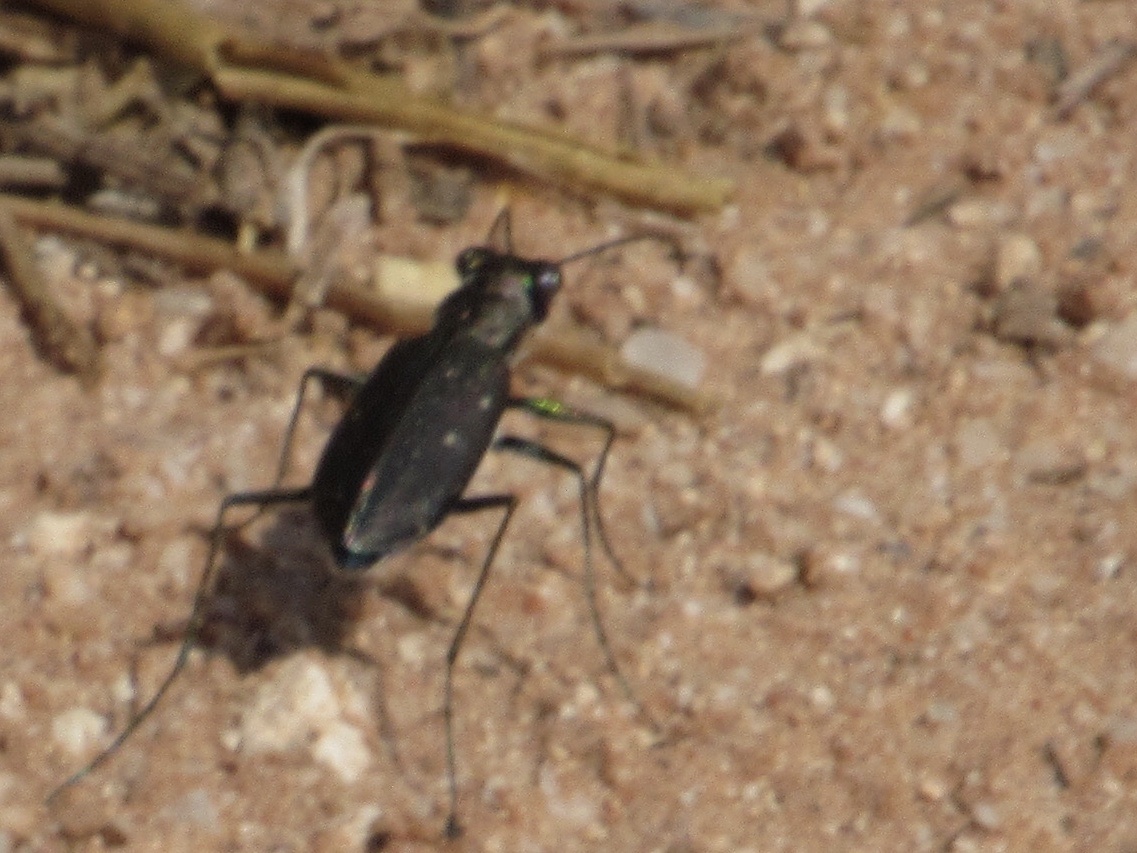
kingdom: Animalia
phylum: Arthropoda
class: Insecta
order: Coleoptera
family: Carabidae
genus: Cicindela
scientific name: Cicindela punctulata
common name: Punctured tiger beetle
